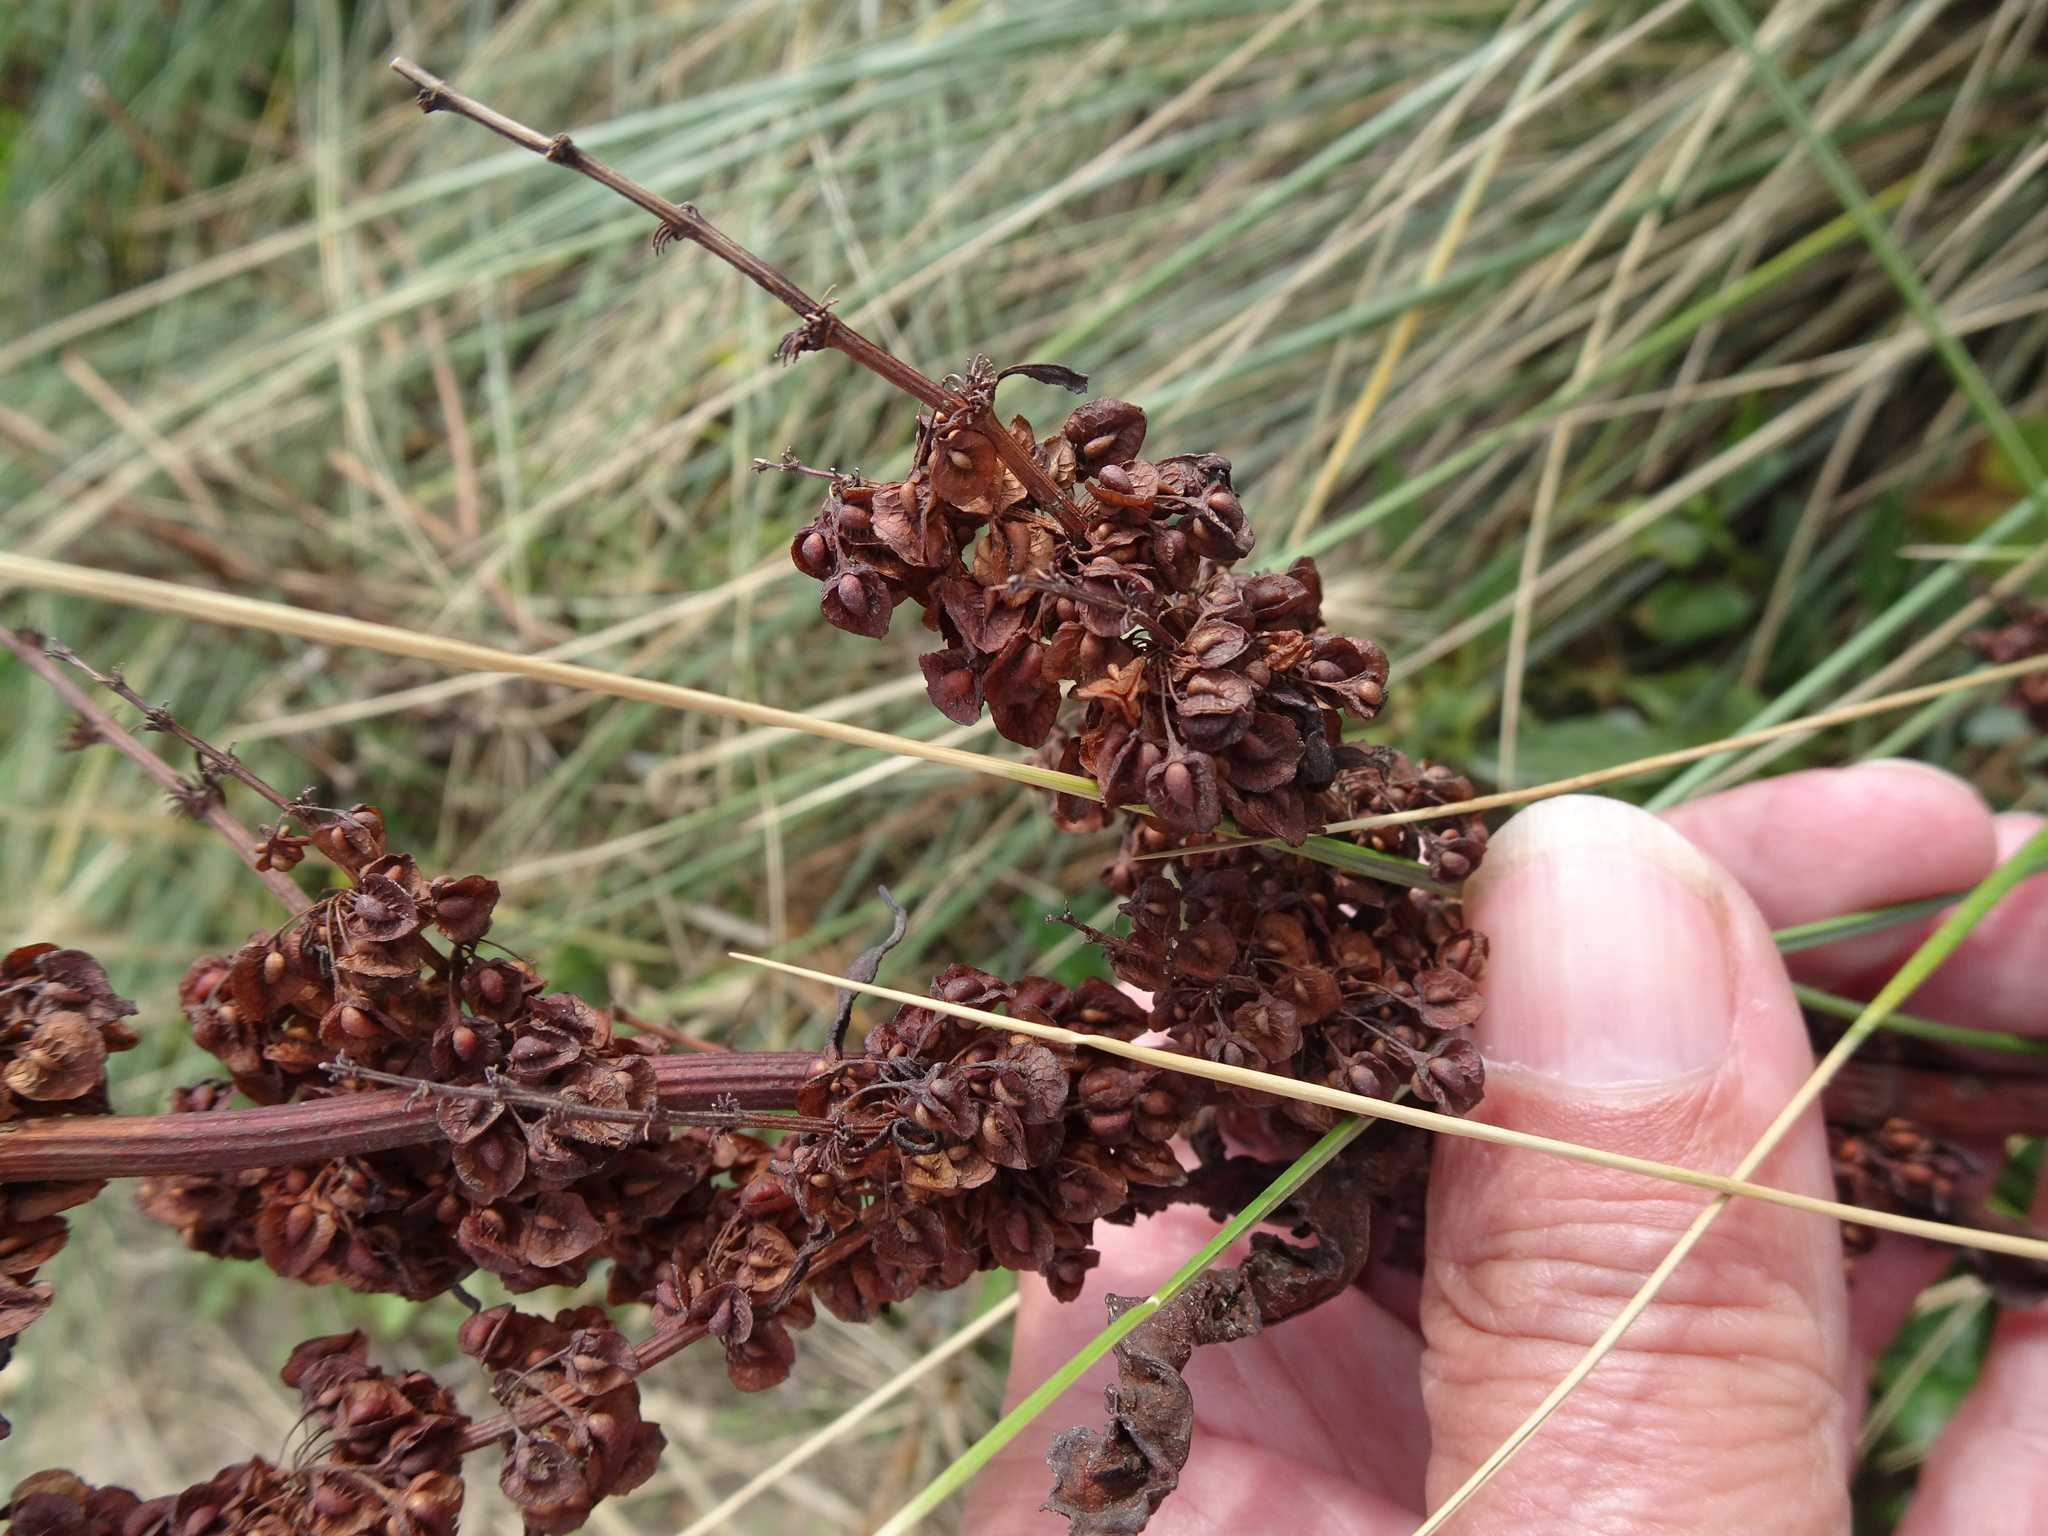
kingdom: Plantae
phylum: Tracheophyta
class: Magnoliopsida
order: Caryophyllales
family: Polygonaceae
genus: Rumex
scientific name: Rumex crispus
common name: Curled dock
